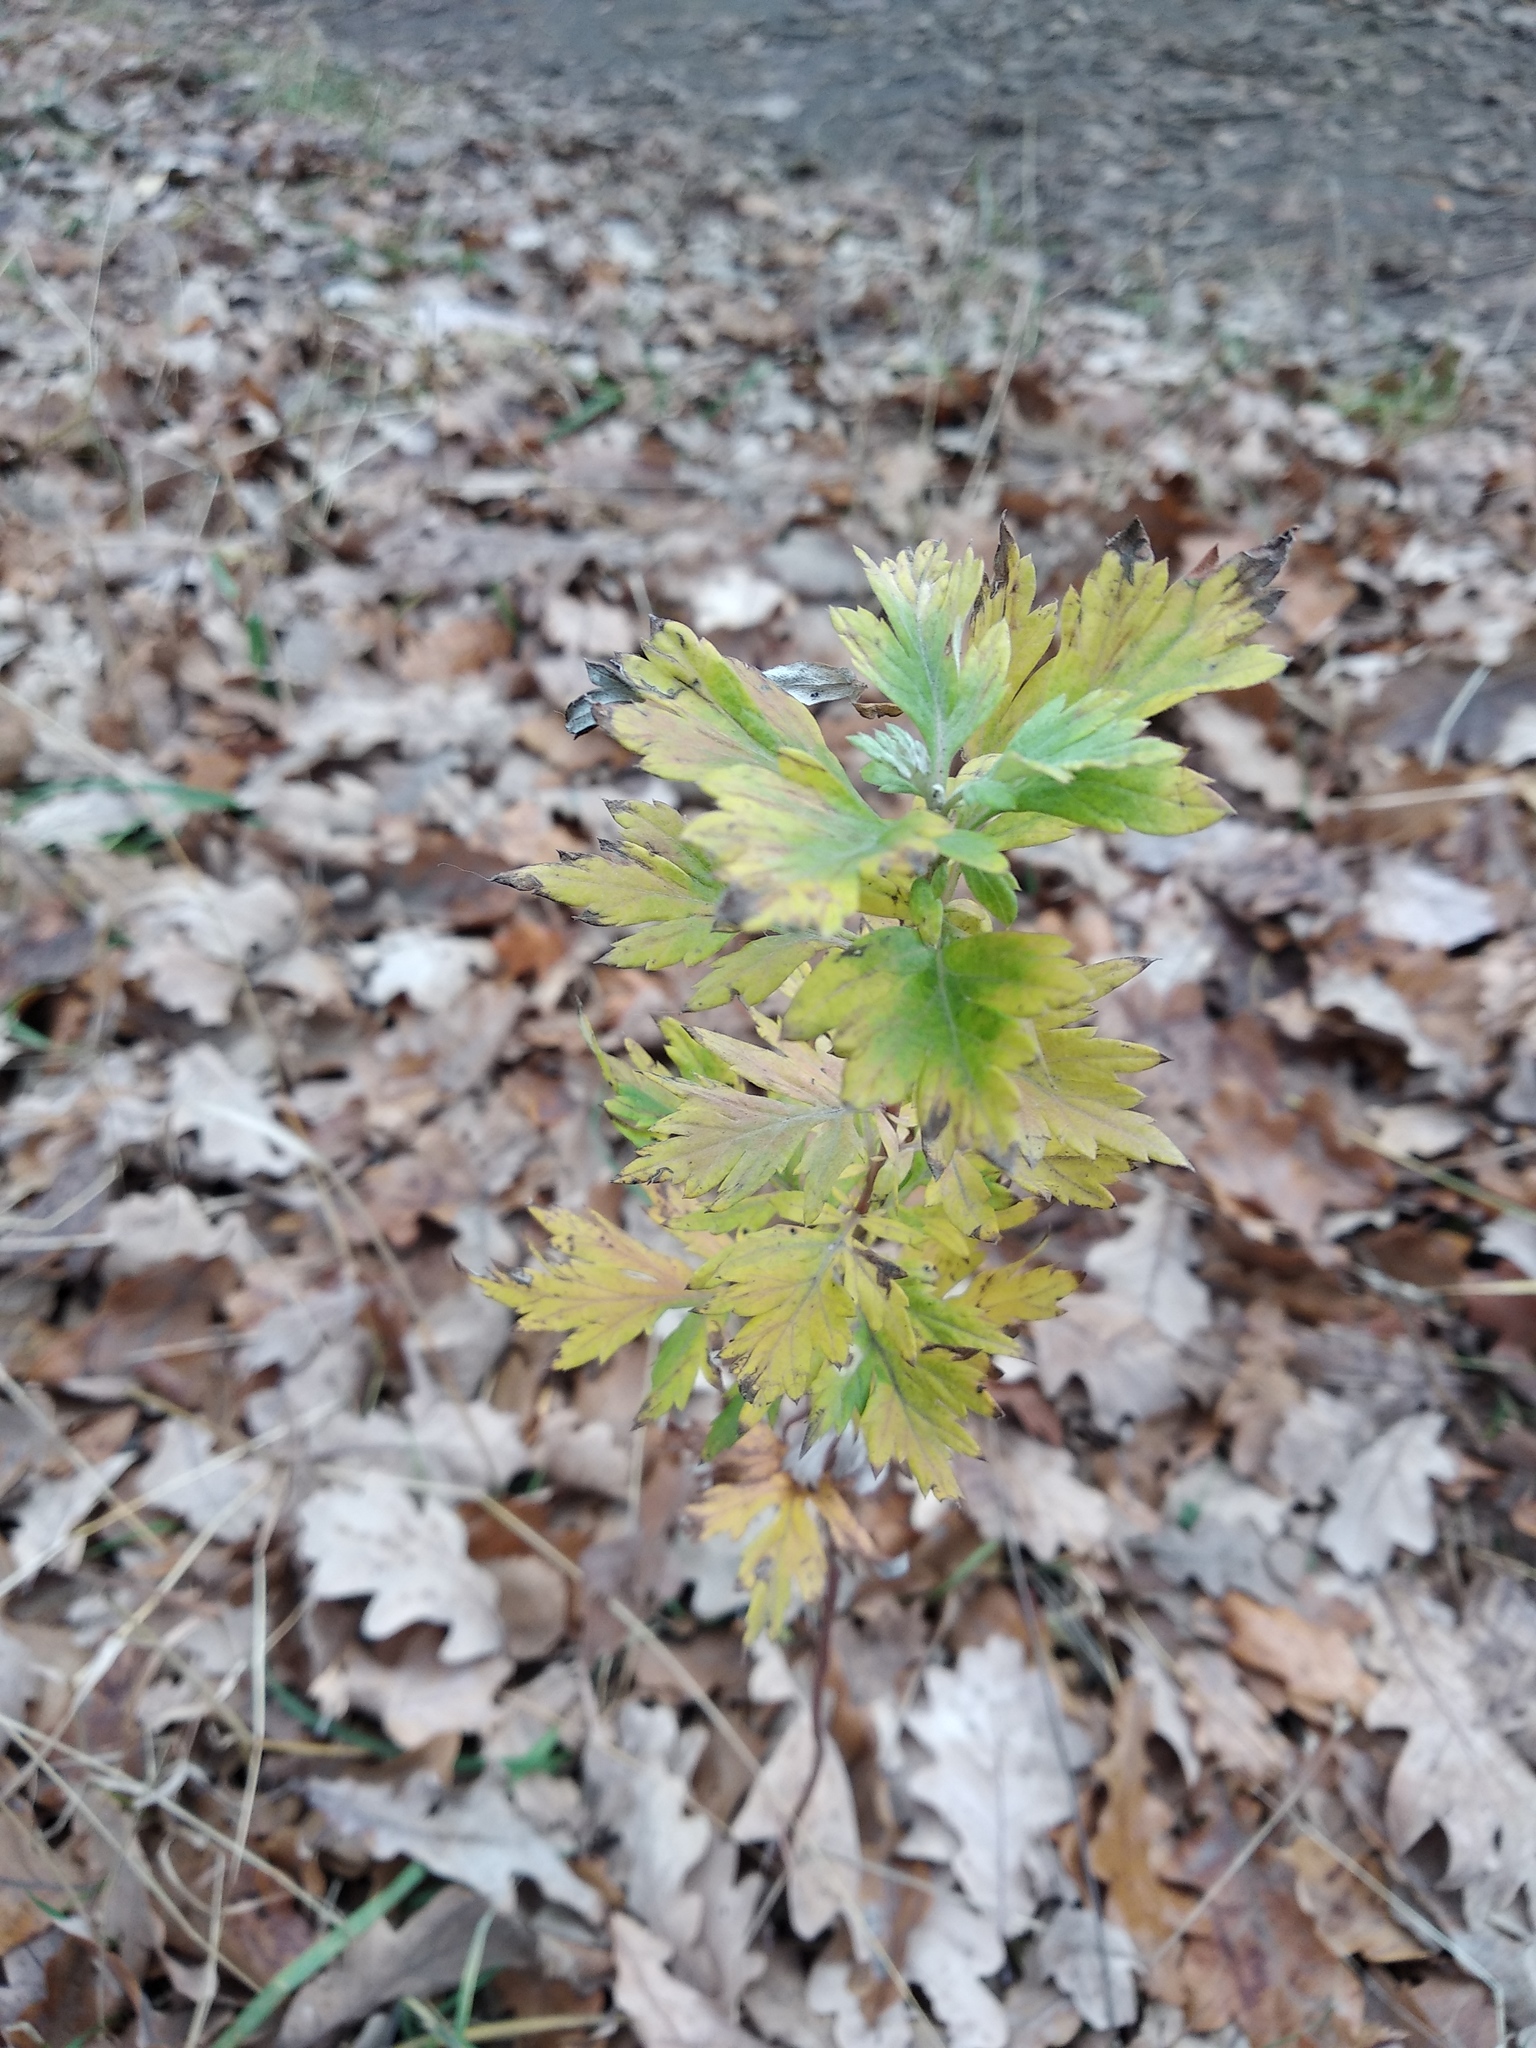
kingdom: Plantae
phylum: Tracheophyta
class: Magnoliopsida
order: Asterales
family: Asteraceae
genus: Artemisia
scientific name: Artemisia vulgaris
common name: Mugwort
